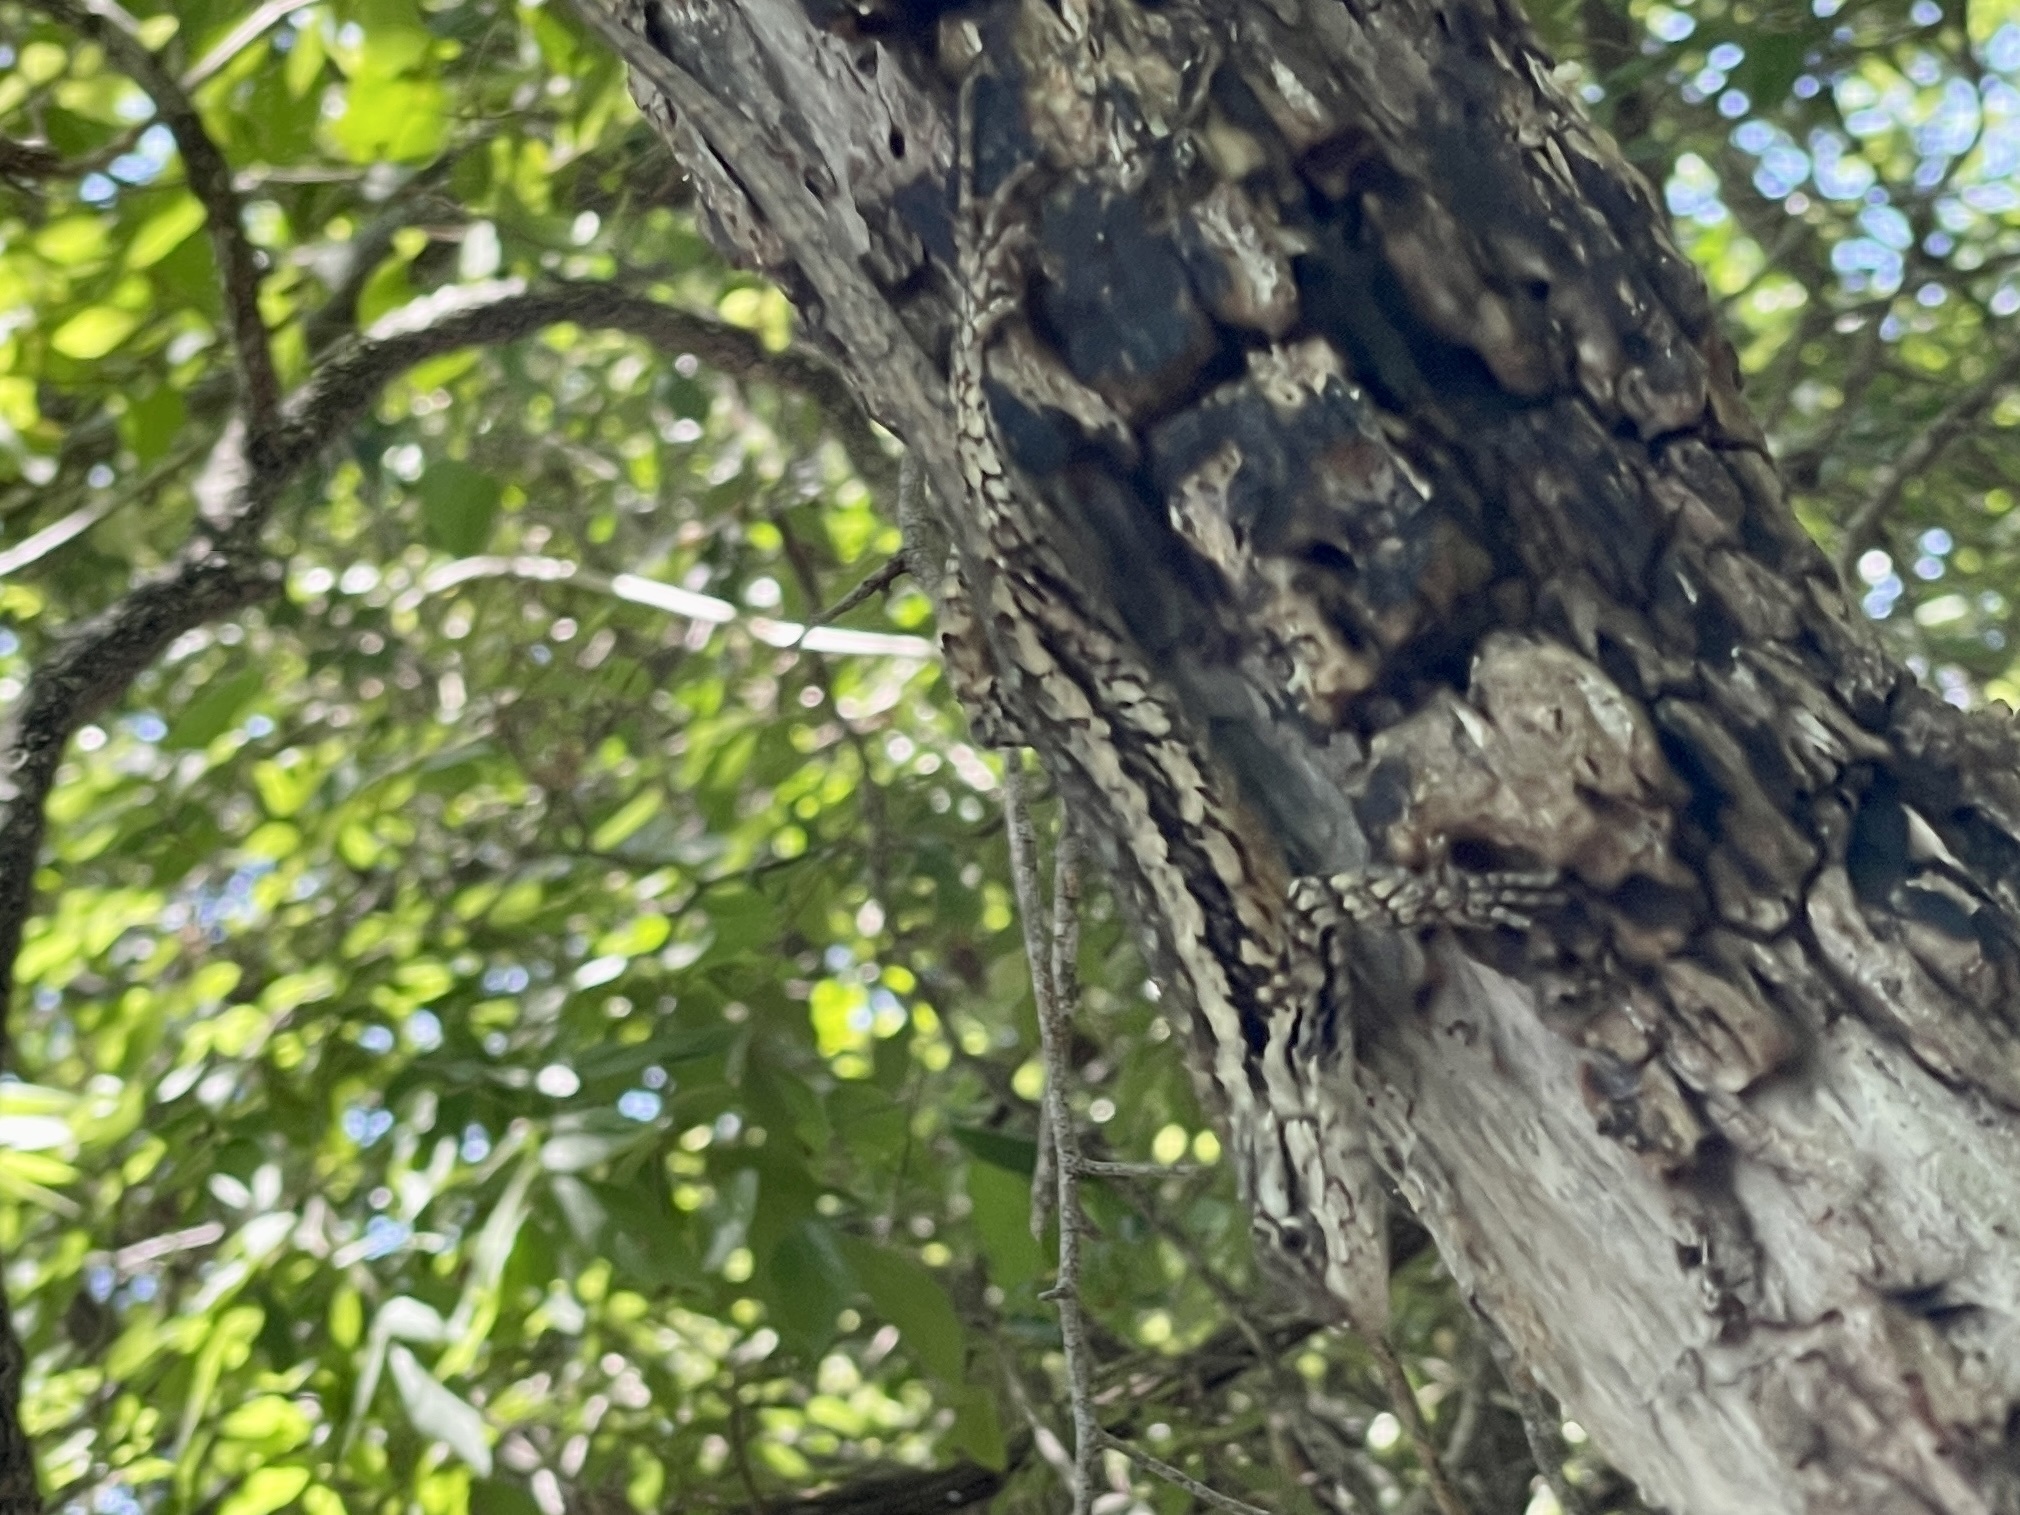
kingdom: Animalia
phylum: Chordata
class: Squamata
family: Phrynosomatidae
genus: Sceloporus
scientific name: Sceloporus olivaceus
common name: Texas spiny lizard
